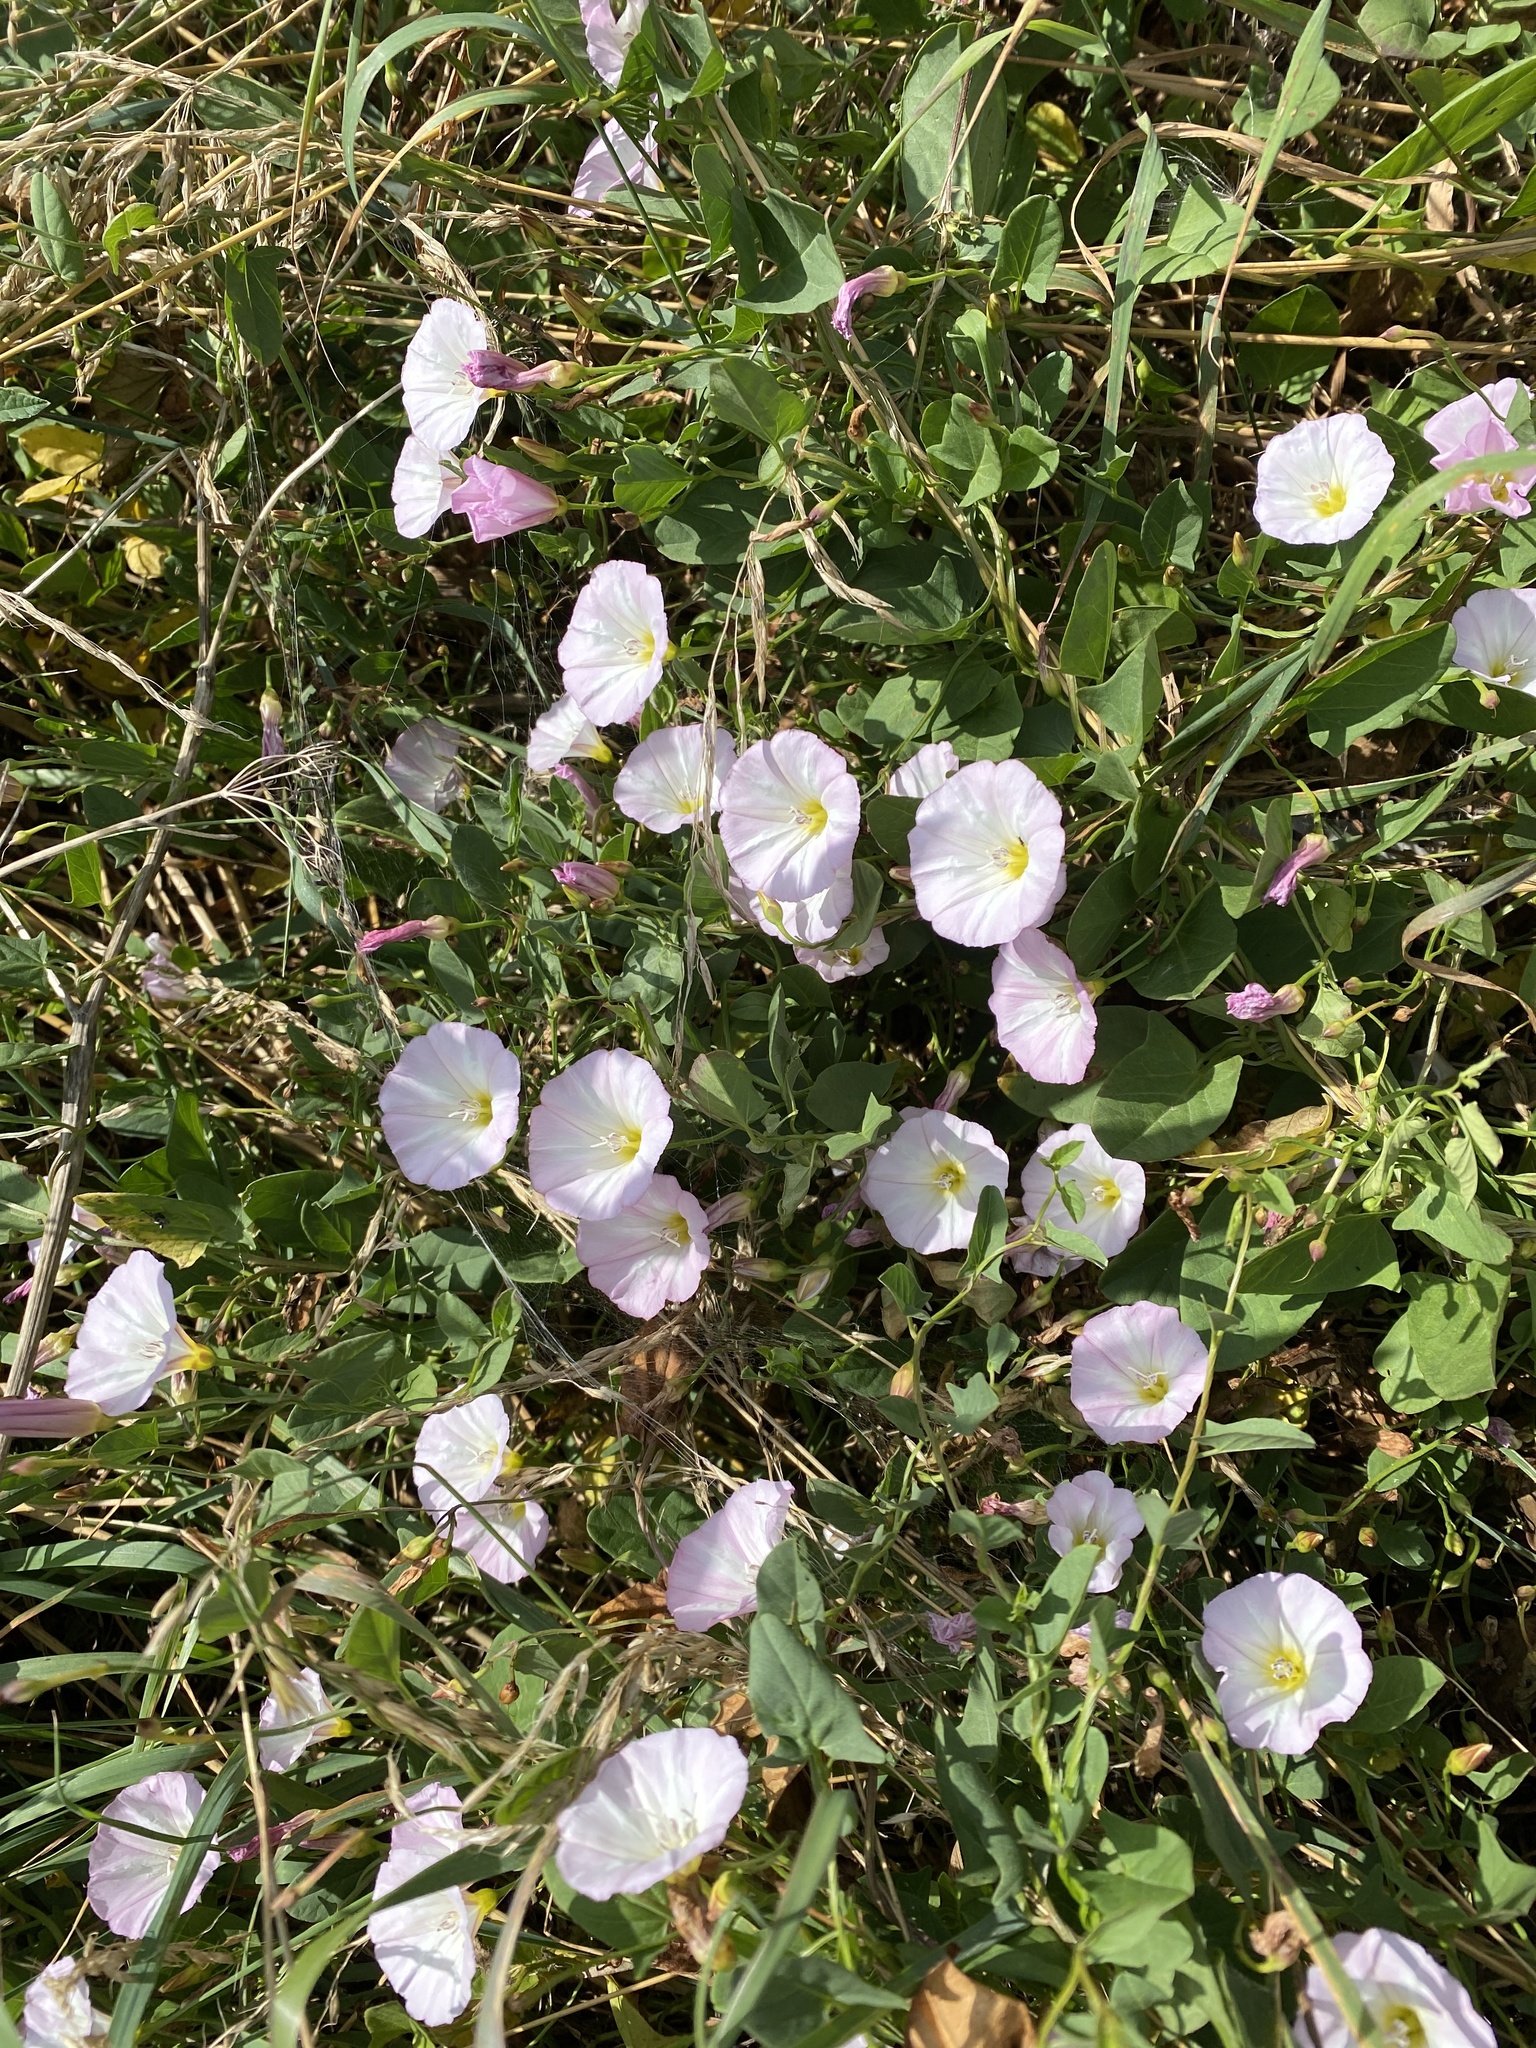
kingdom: Plantae
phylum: Tracheophyta
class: Magnoliopsida
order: Solanales
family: Convolvulaceae
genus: Convolvulus
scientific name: Convolvulus arvensis
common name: Field bindweed
